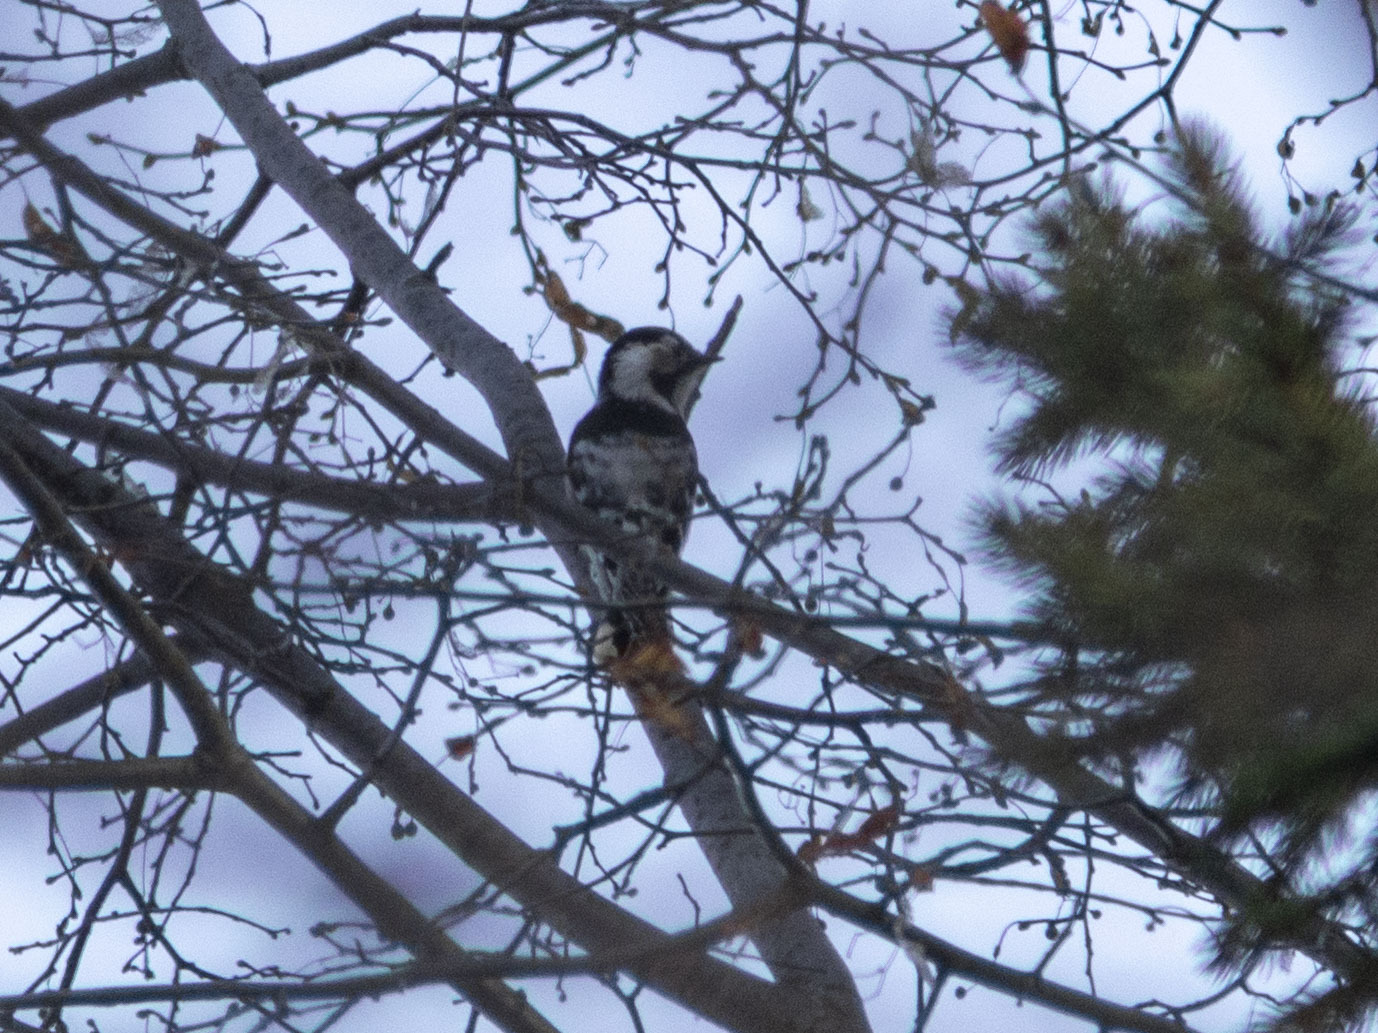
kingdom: Animalia
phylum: Chordata
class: Aves
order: Piciformes
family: Picidae
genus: Dryobates
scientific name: Dryobates minor
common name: Lesser spotted woodpecker
